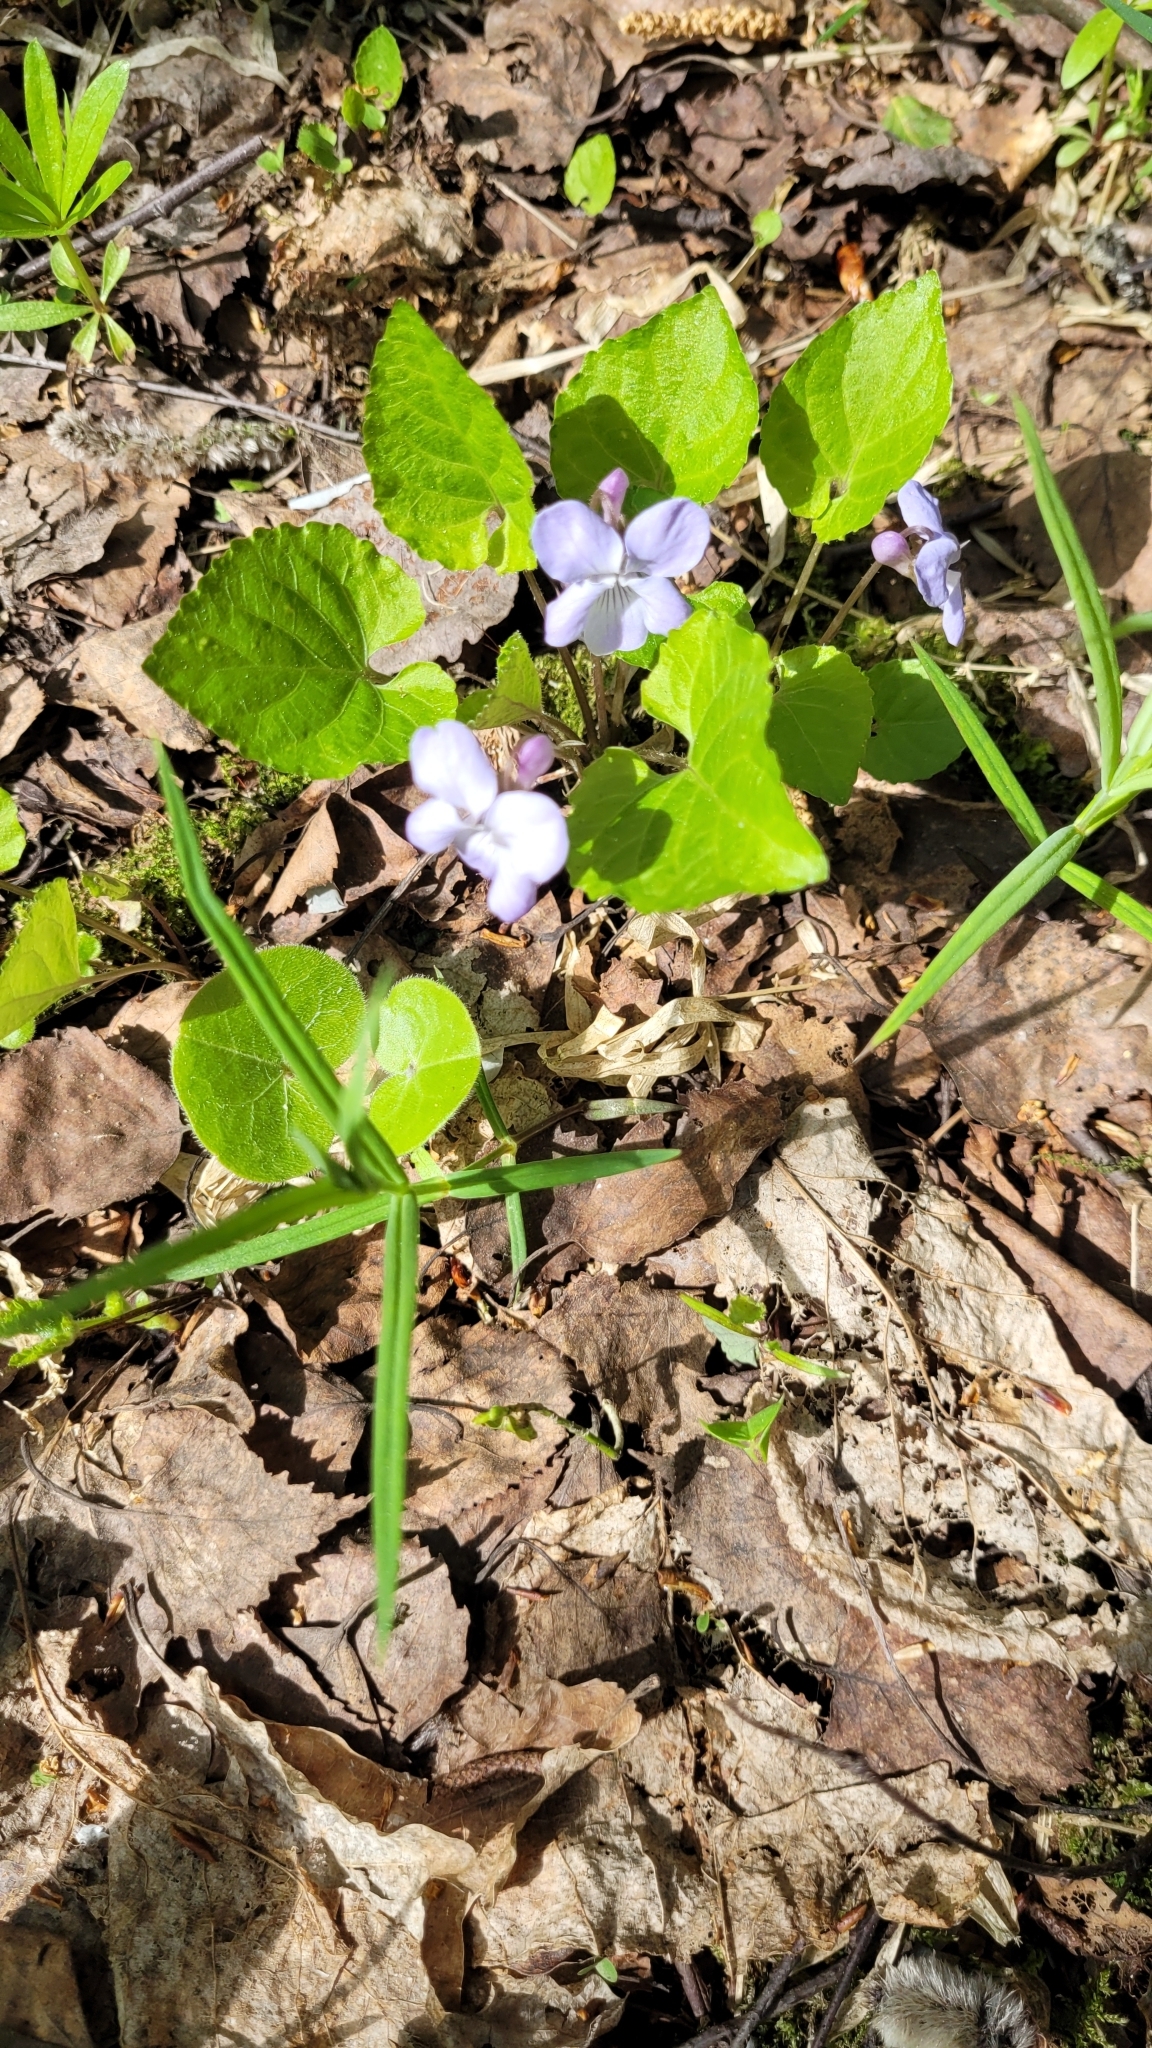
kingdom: Plantae
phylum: Tracheophyta
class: Magnoliopsida
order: Malpighiales
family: Violaceae
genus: Viola
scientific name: Viola selkirkii
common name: Selkirk's violet
